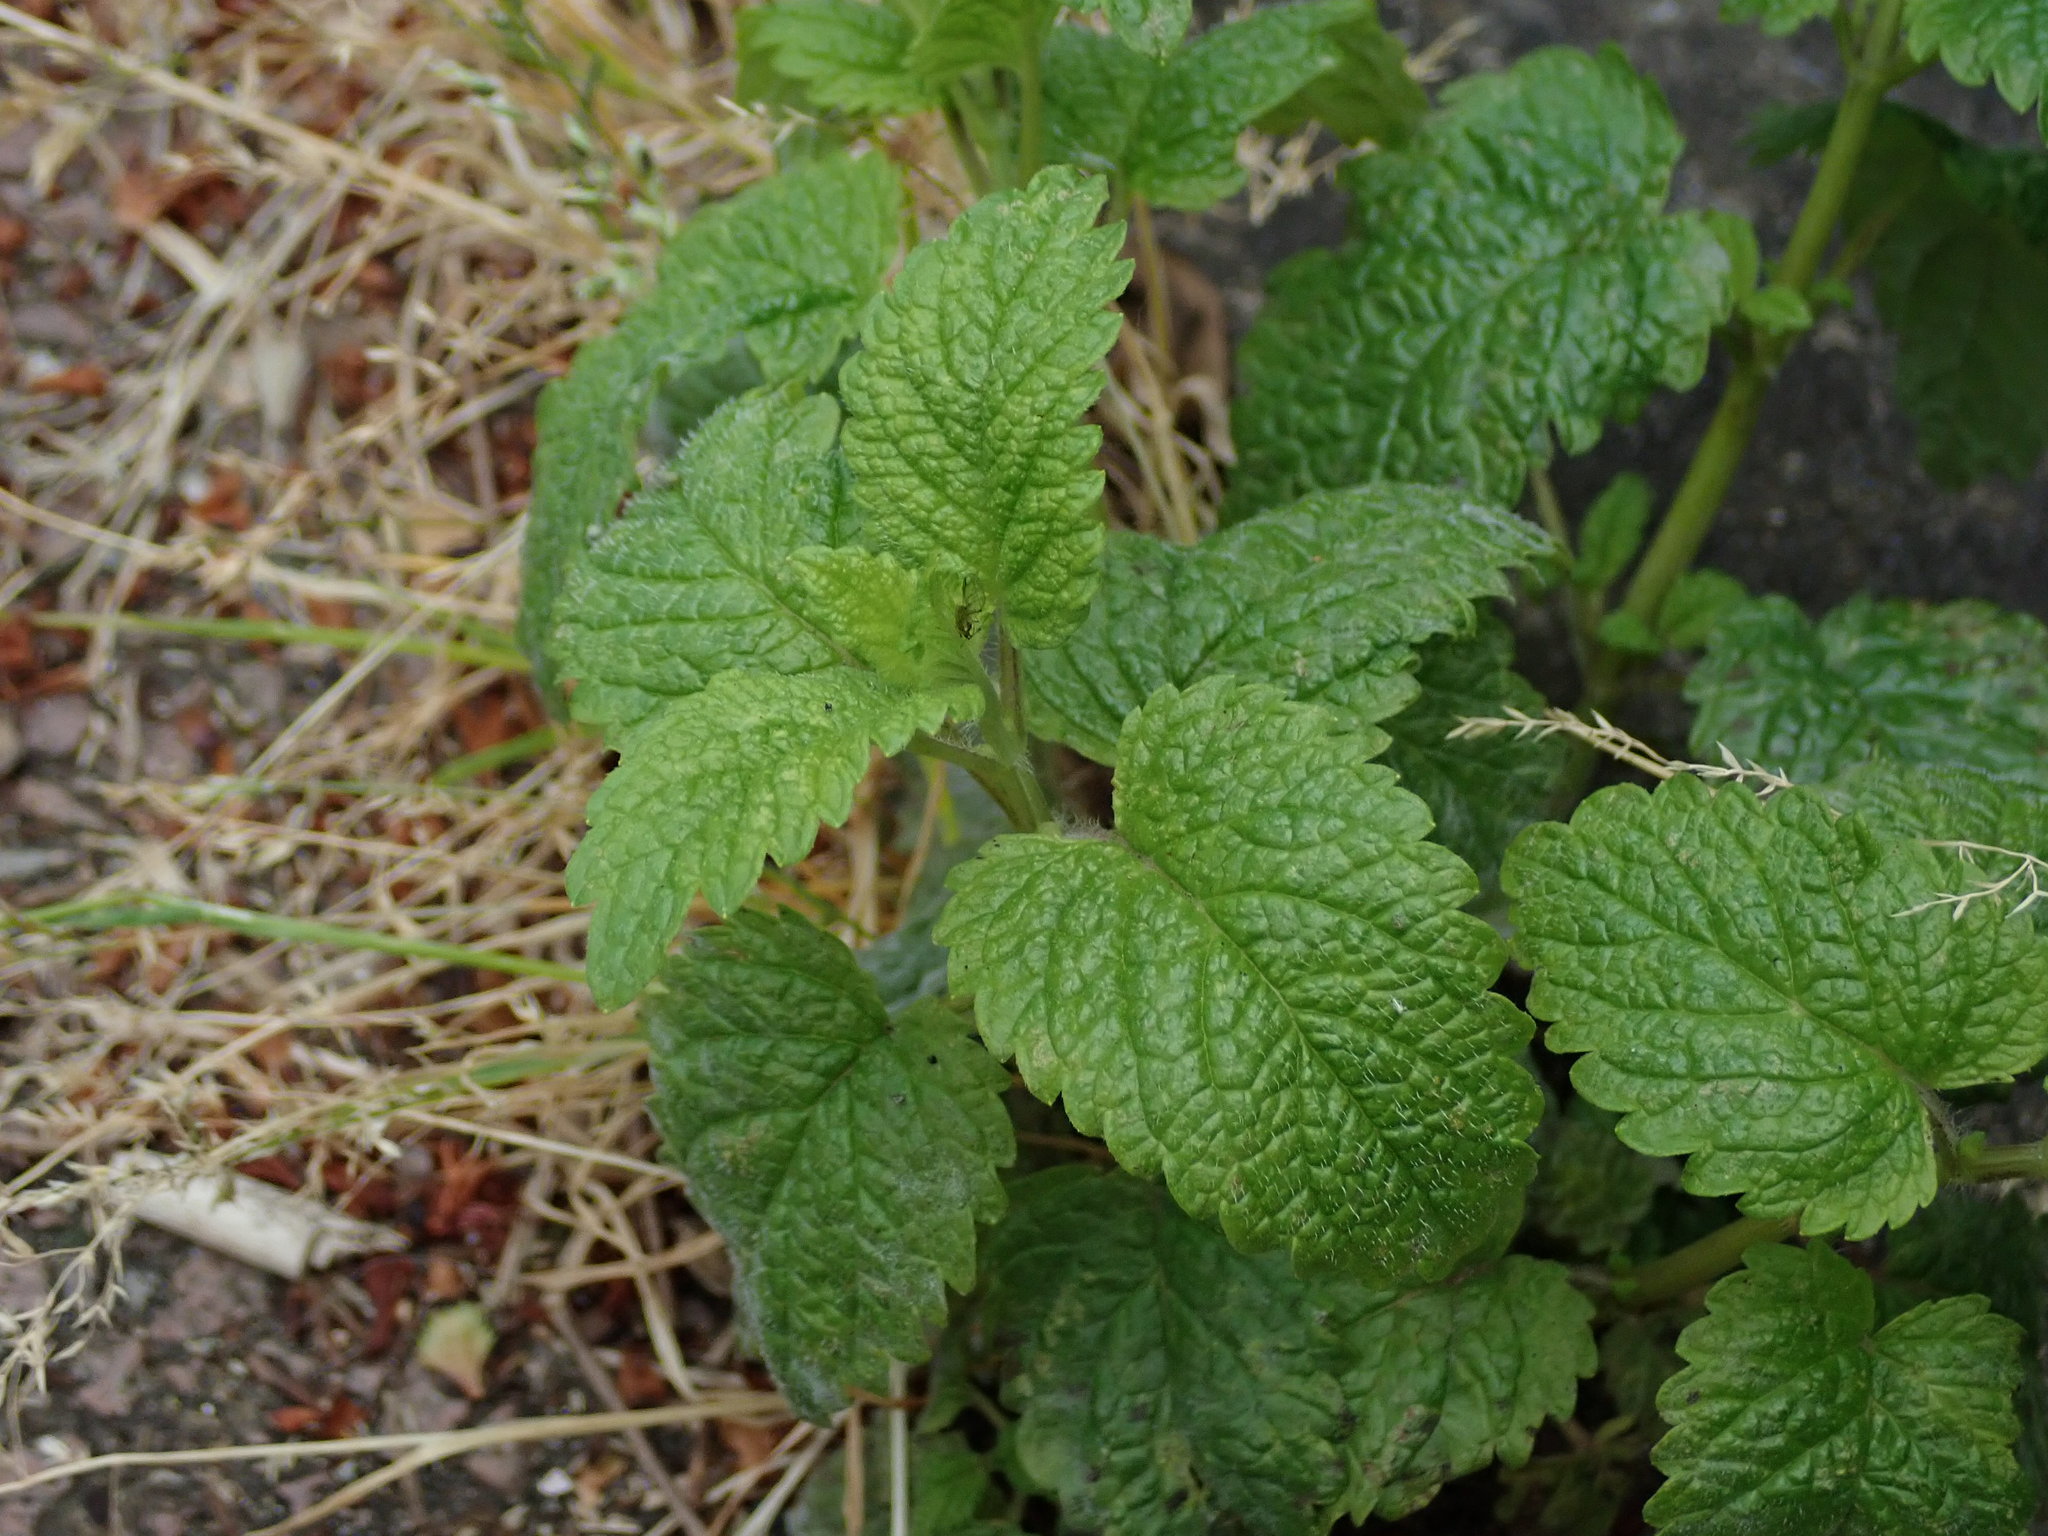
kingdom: Plantae
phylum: Tracheophyta
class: Magnoliopsida
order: Lamiales
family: Lamiaceae
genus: Melissa
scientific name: Melissa officinalis
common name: Balm
